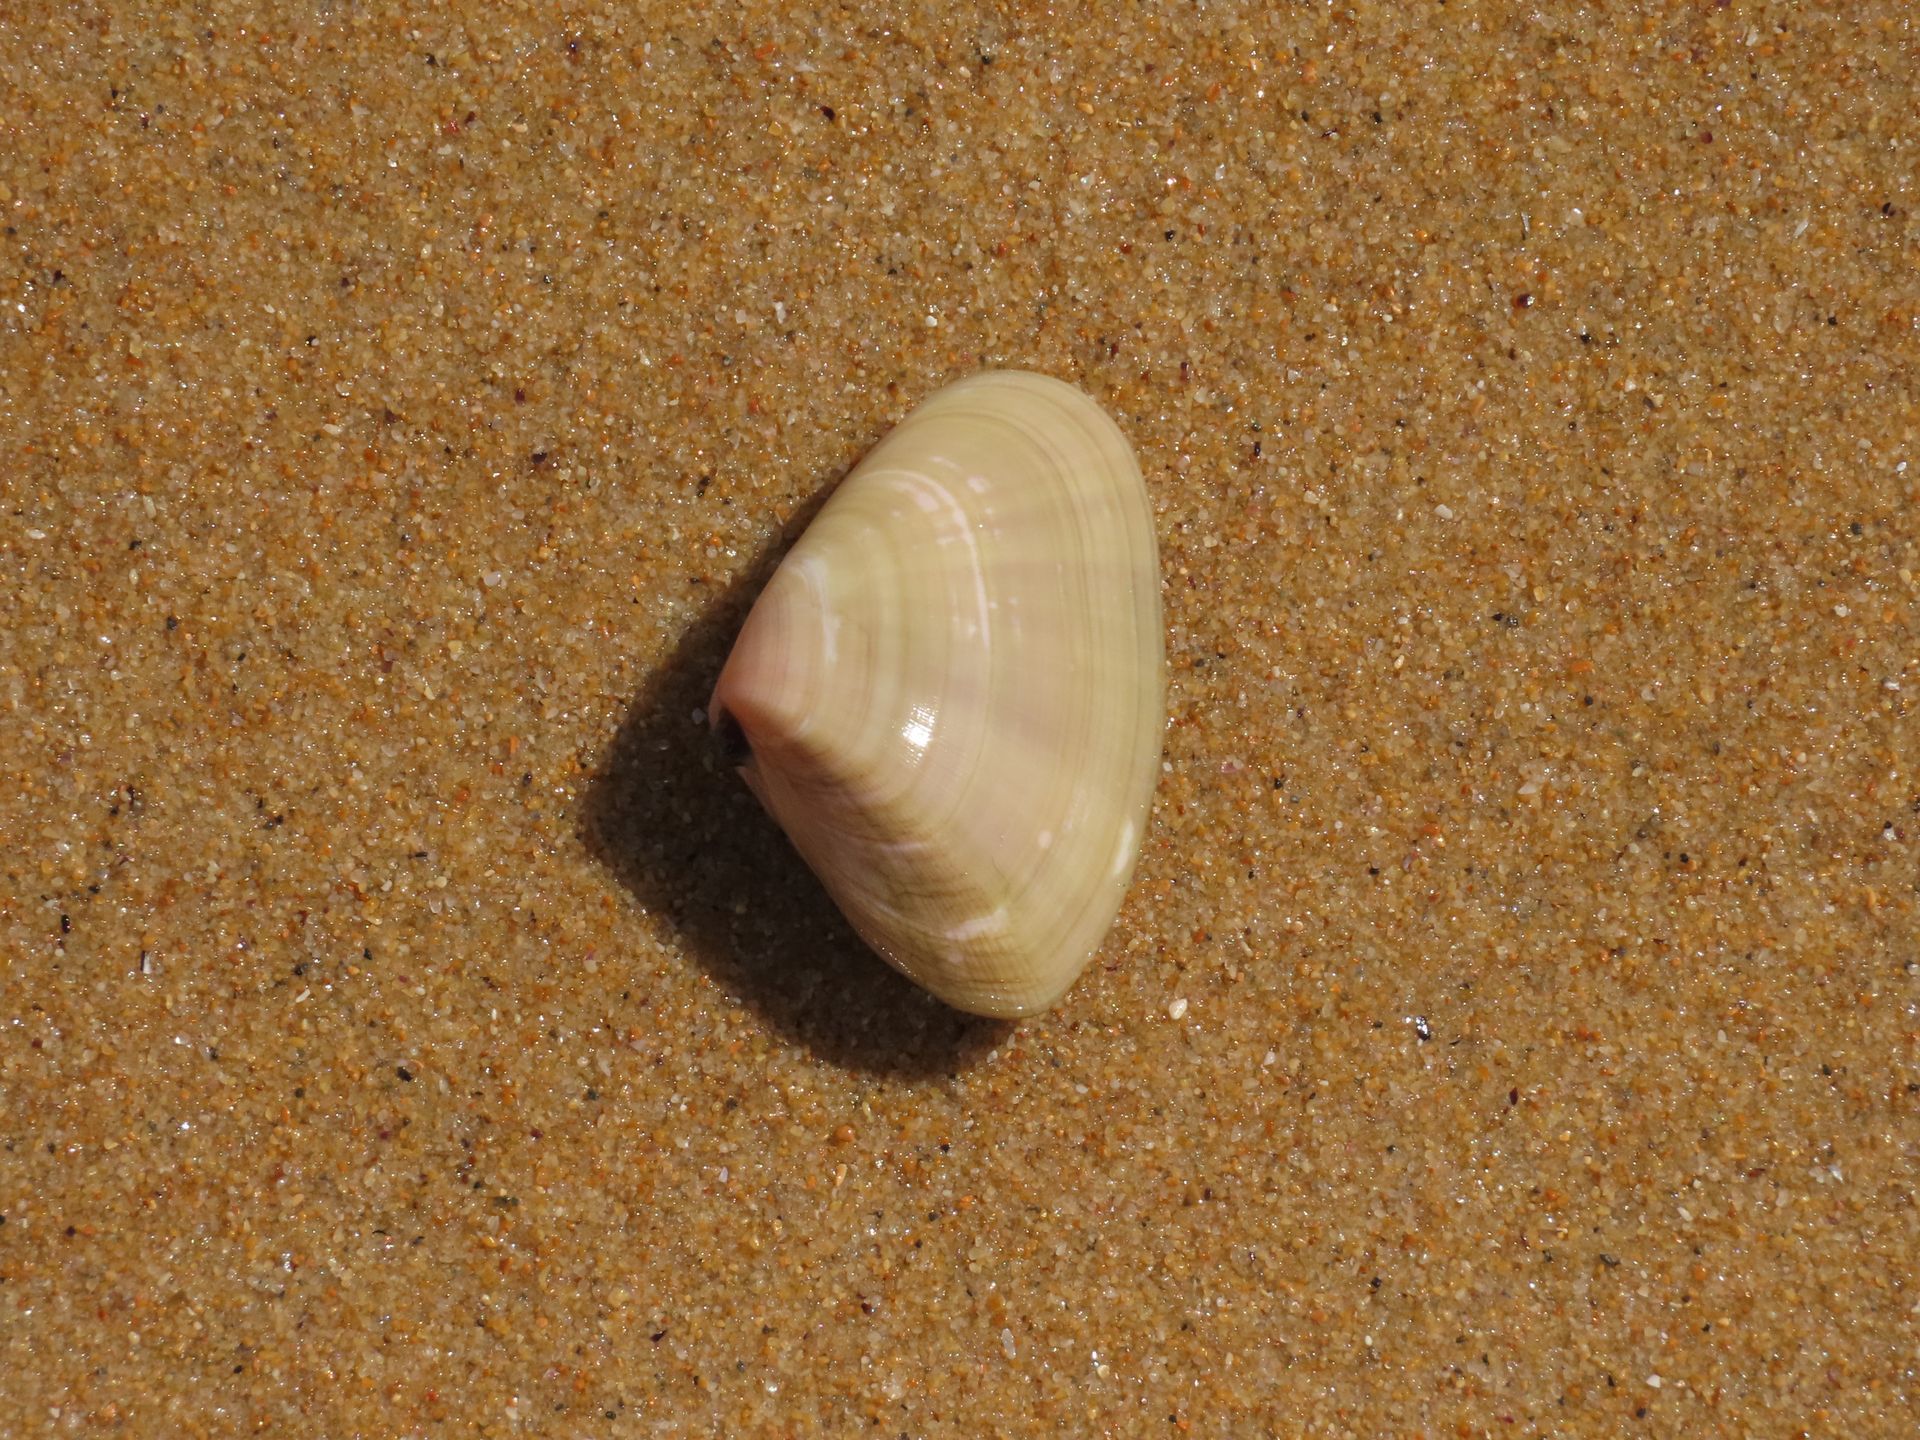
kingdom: Animalia
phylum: Mollusca
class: Bivalvia
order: Cardiida
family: Donacidae
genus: Latona
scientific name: Latona deltoides
